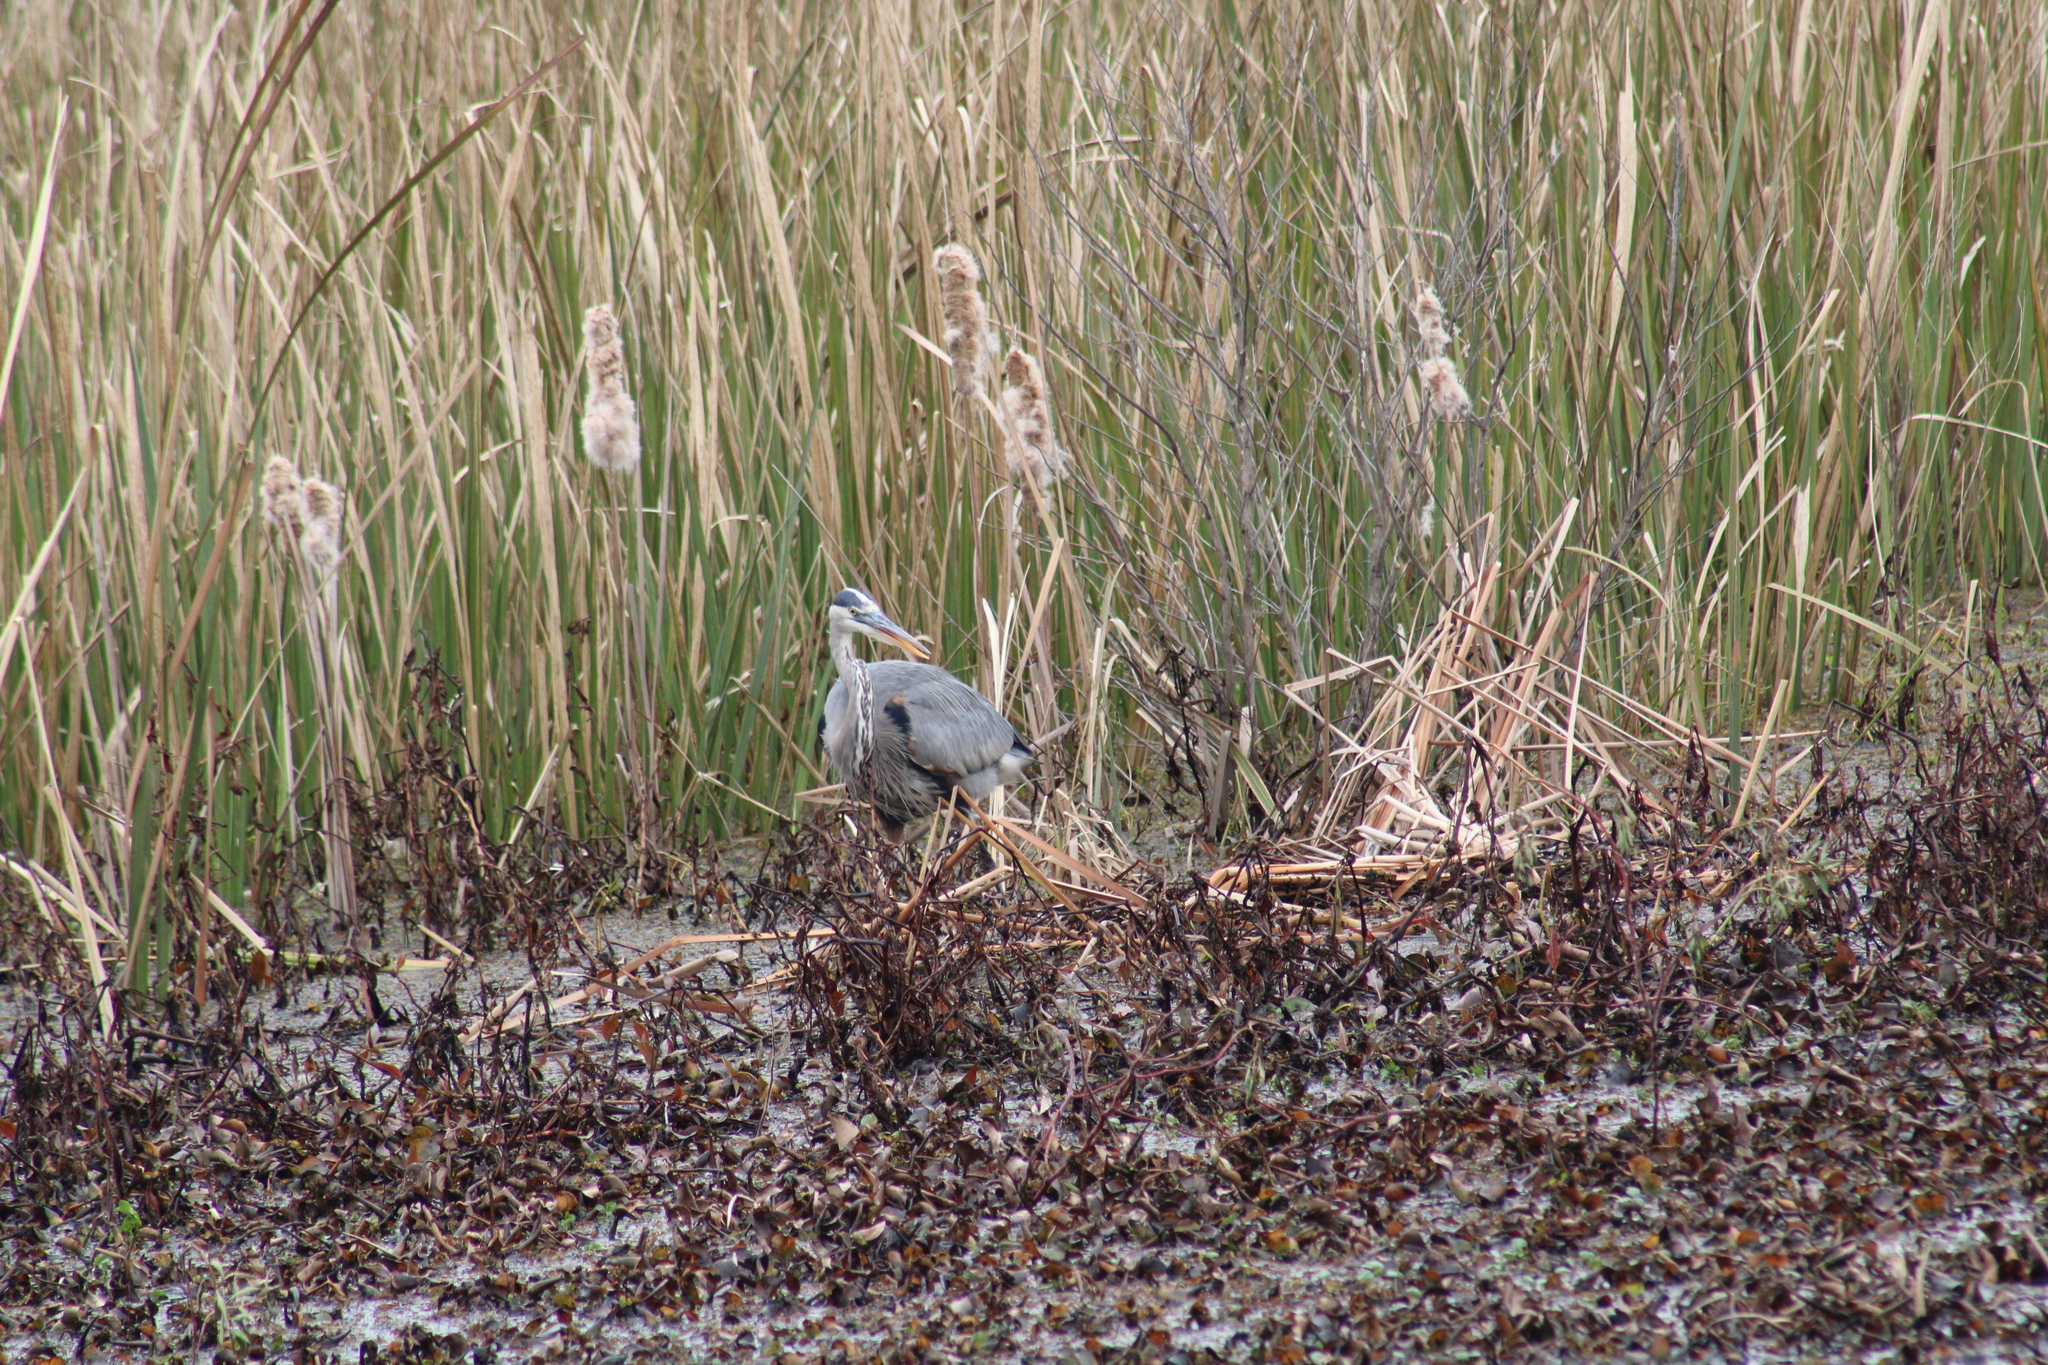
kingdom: Animalia
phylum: Chordata
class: Aves
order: Pelecaniformes
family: Ardeidae
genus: Ardea
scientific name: Ardea herodias
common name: Great blue heron
